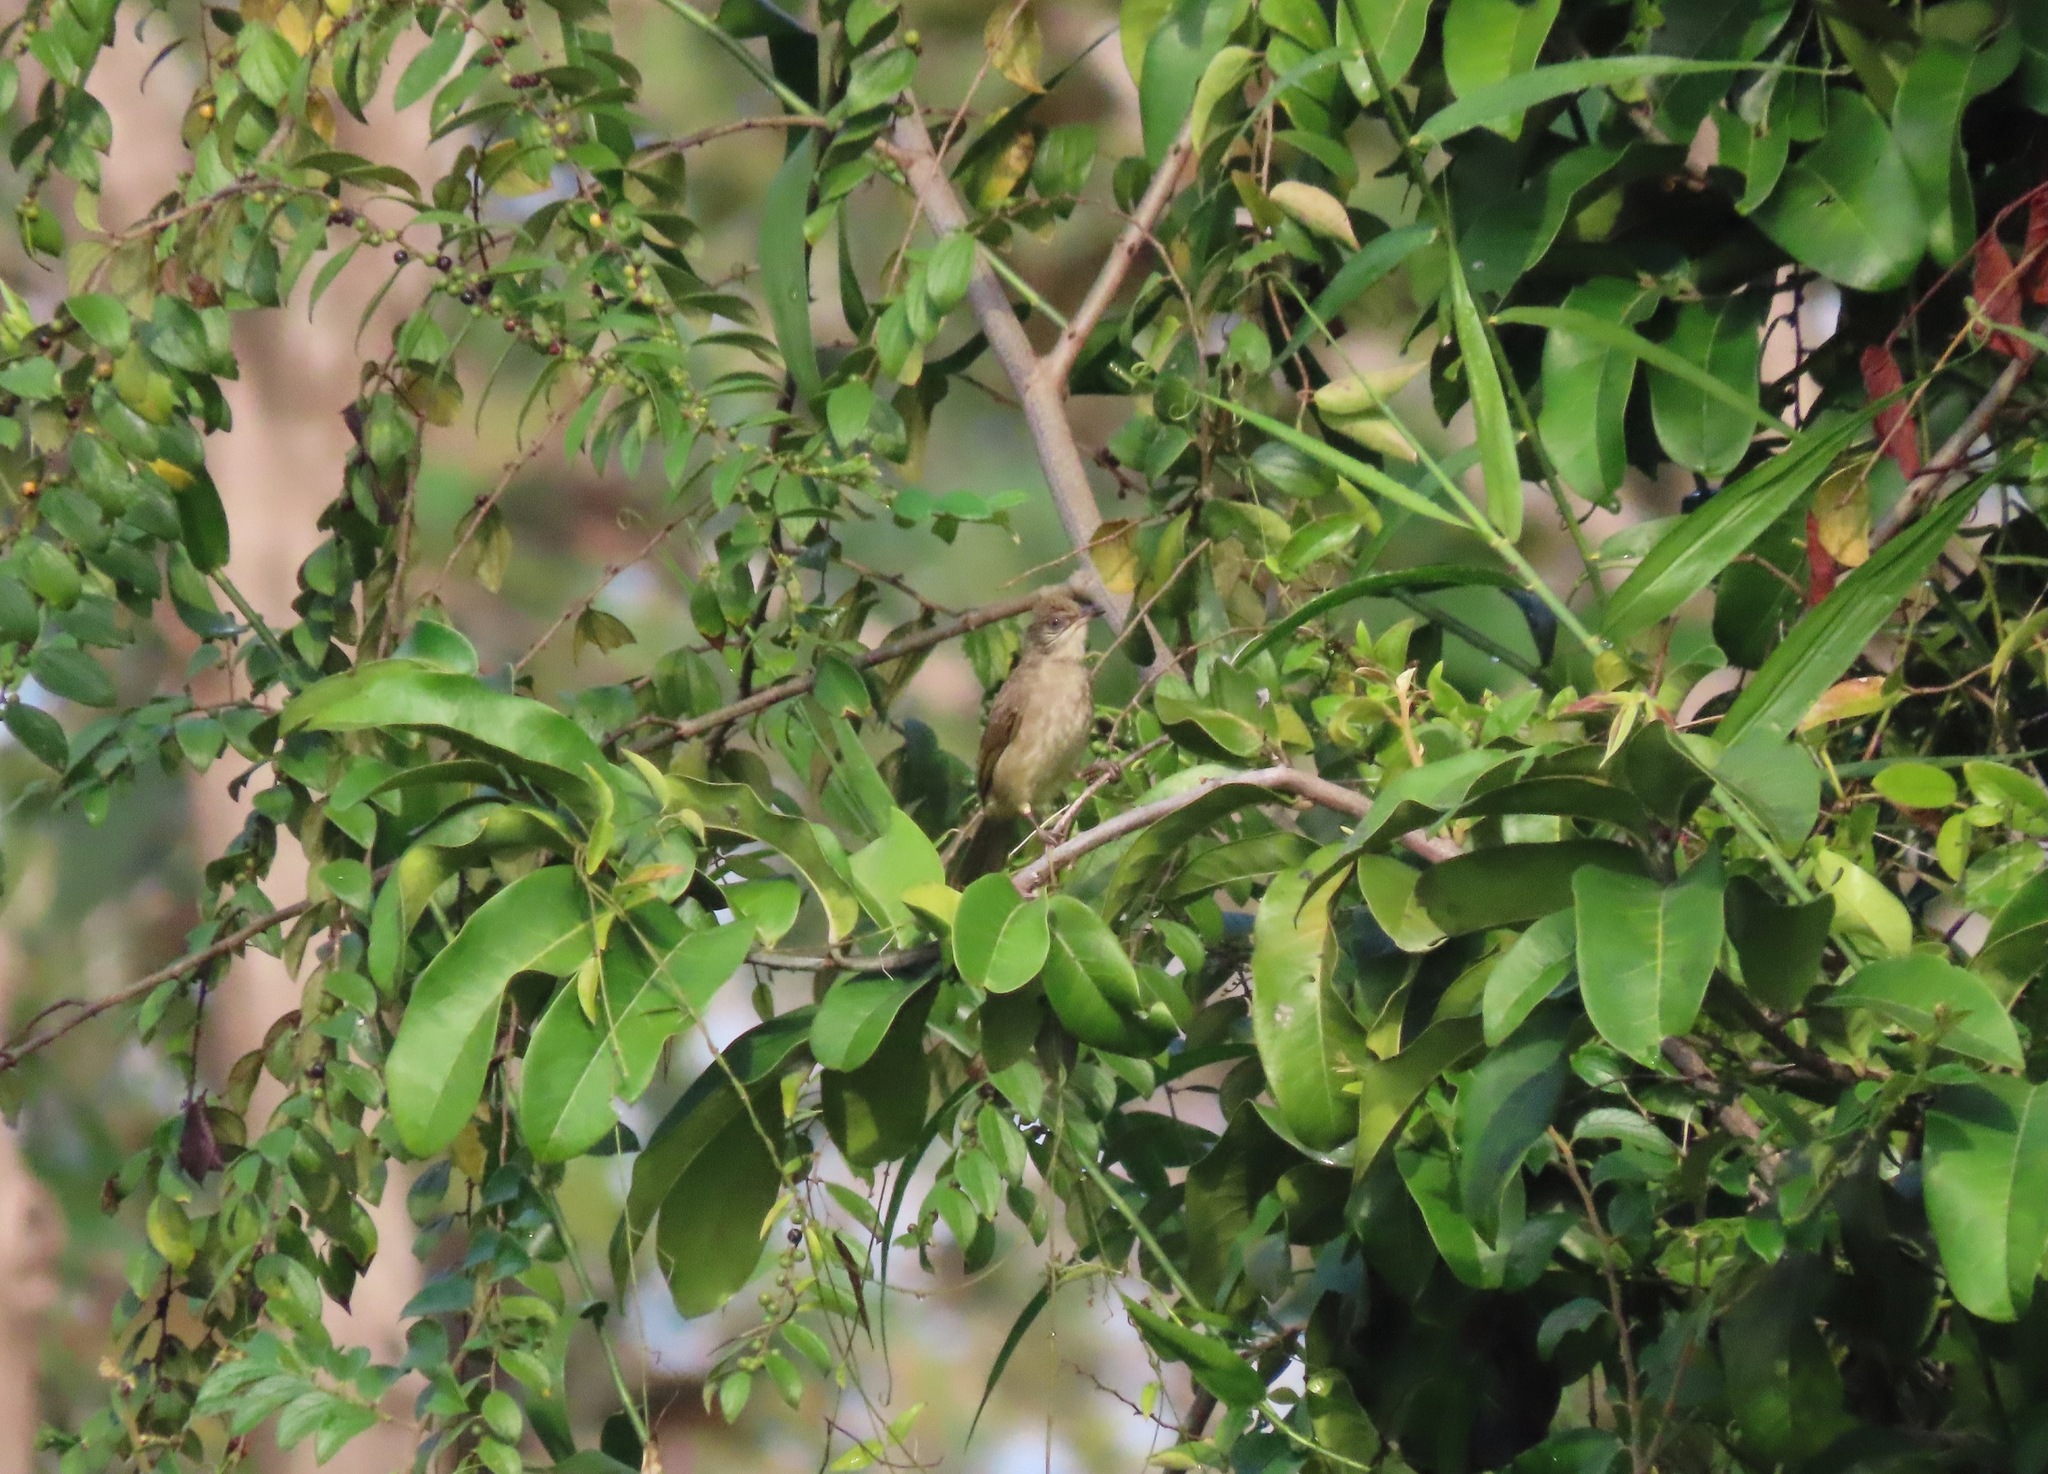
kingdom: Animalia
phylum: Chordata
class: Aves
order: Passeriformes
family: Pycnonotidae
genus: Pycnonotus
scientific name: Pycnonotus blanfordi
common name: Streak-eared bulbul
